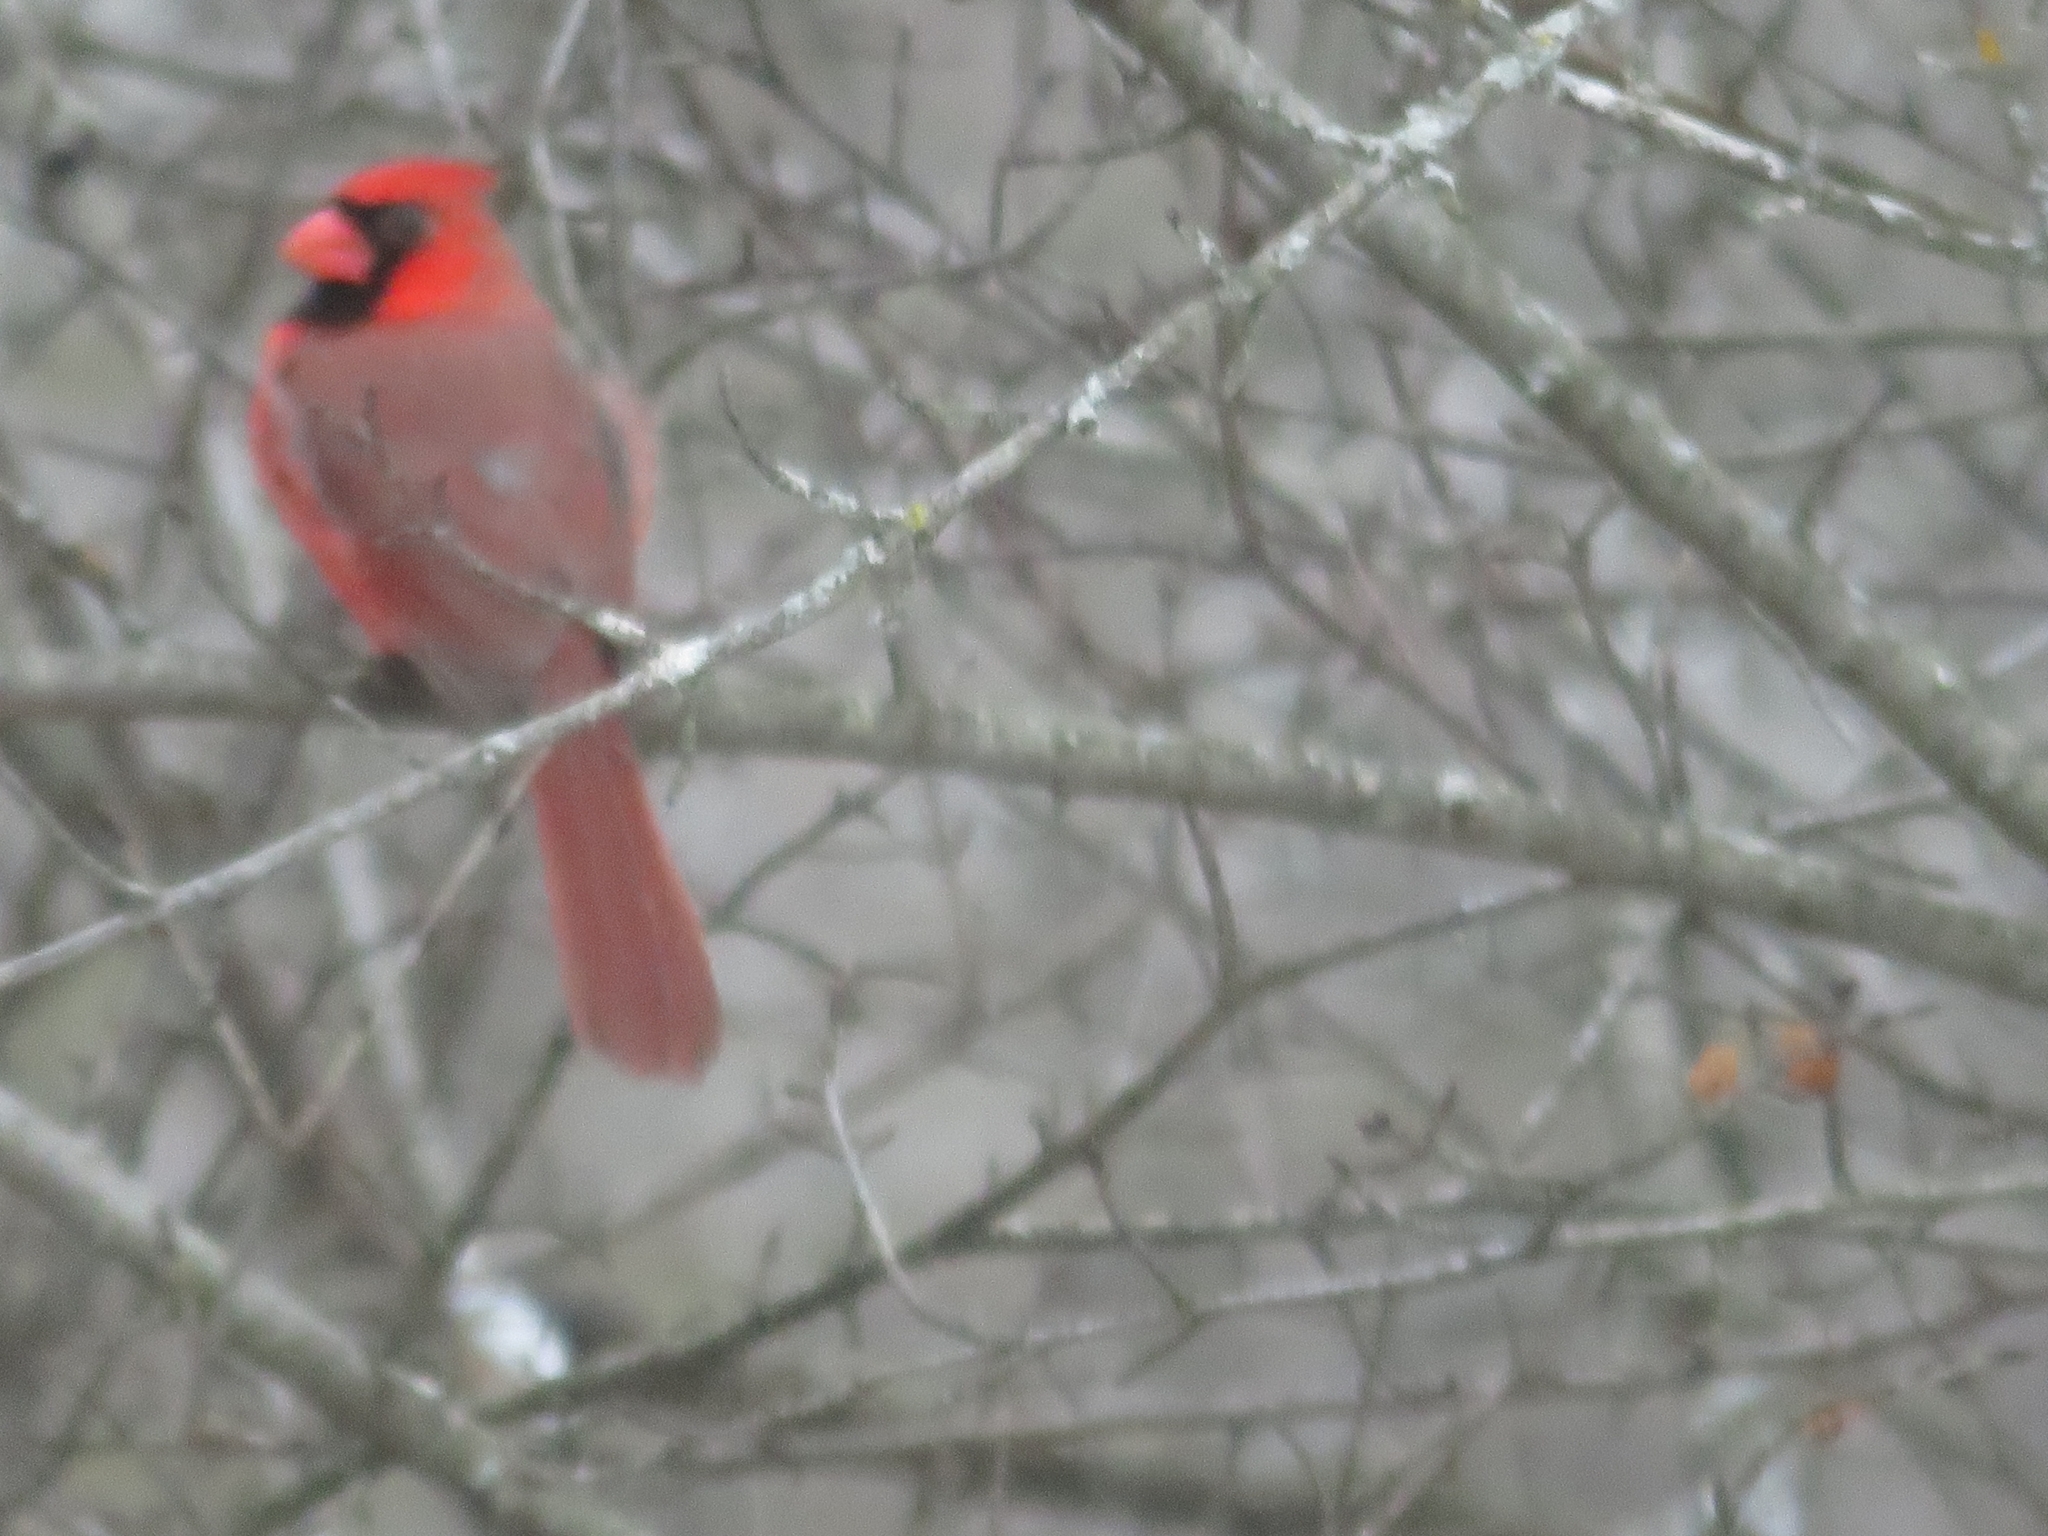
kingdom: Animalia
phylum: Chordata
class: Aves
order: Passeriformes
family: Cardinalidae
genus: Cardinalis
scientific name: Cardinalis cardinalis
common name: Northern cardinal
